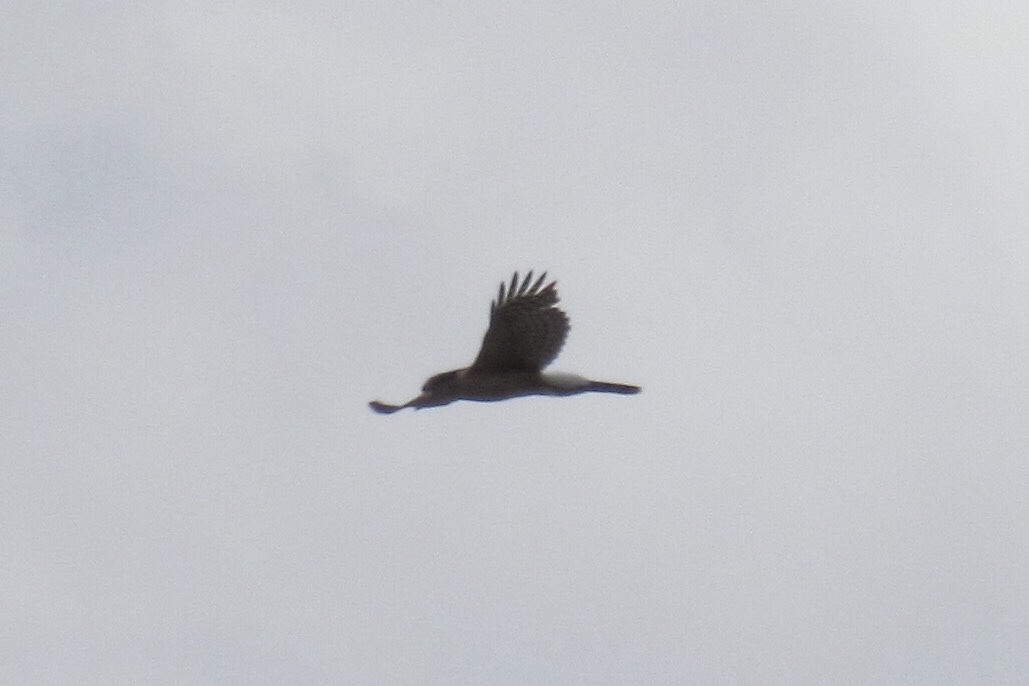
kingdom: Animalia
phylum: Chordata
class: Aves
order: Accipitriformes
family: Accipitridae
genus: Accipiter
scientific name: Accipiter cooperii
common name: Cooper's hawk
